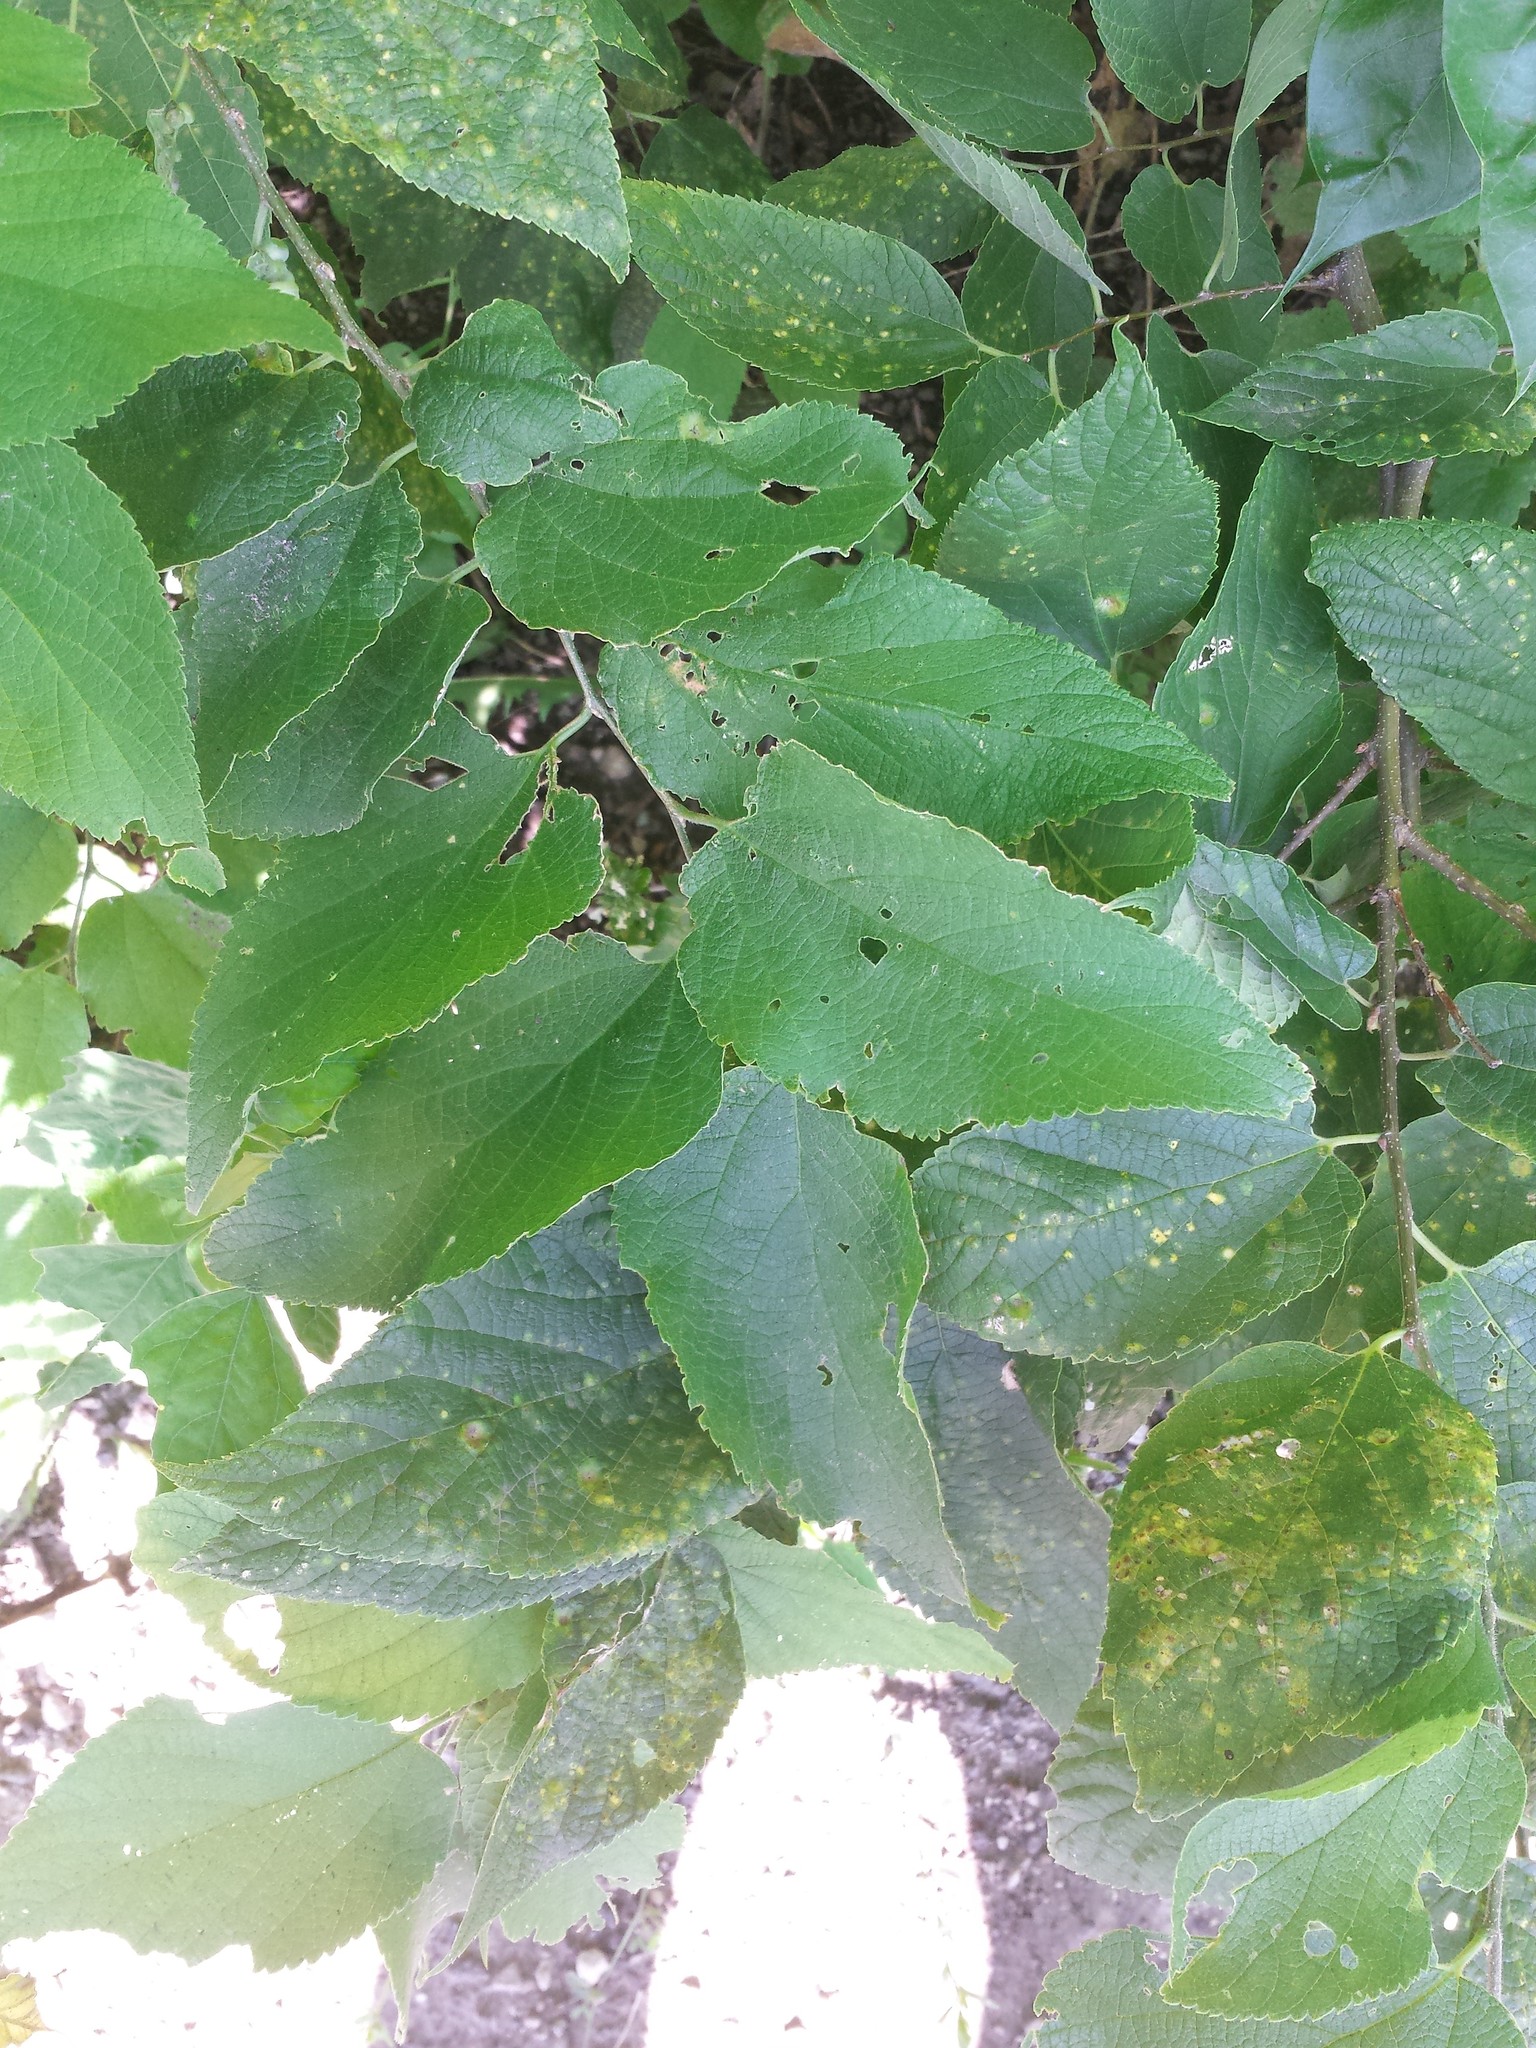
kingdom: Plantae
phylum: Tracheophyta
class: Magnoliopsida
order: Rosales
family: Cannabaceae
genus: Celtis
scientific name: Celtis occidentalis
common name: Common hackberry
